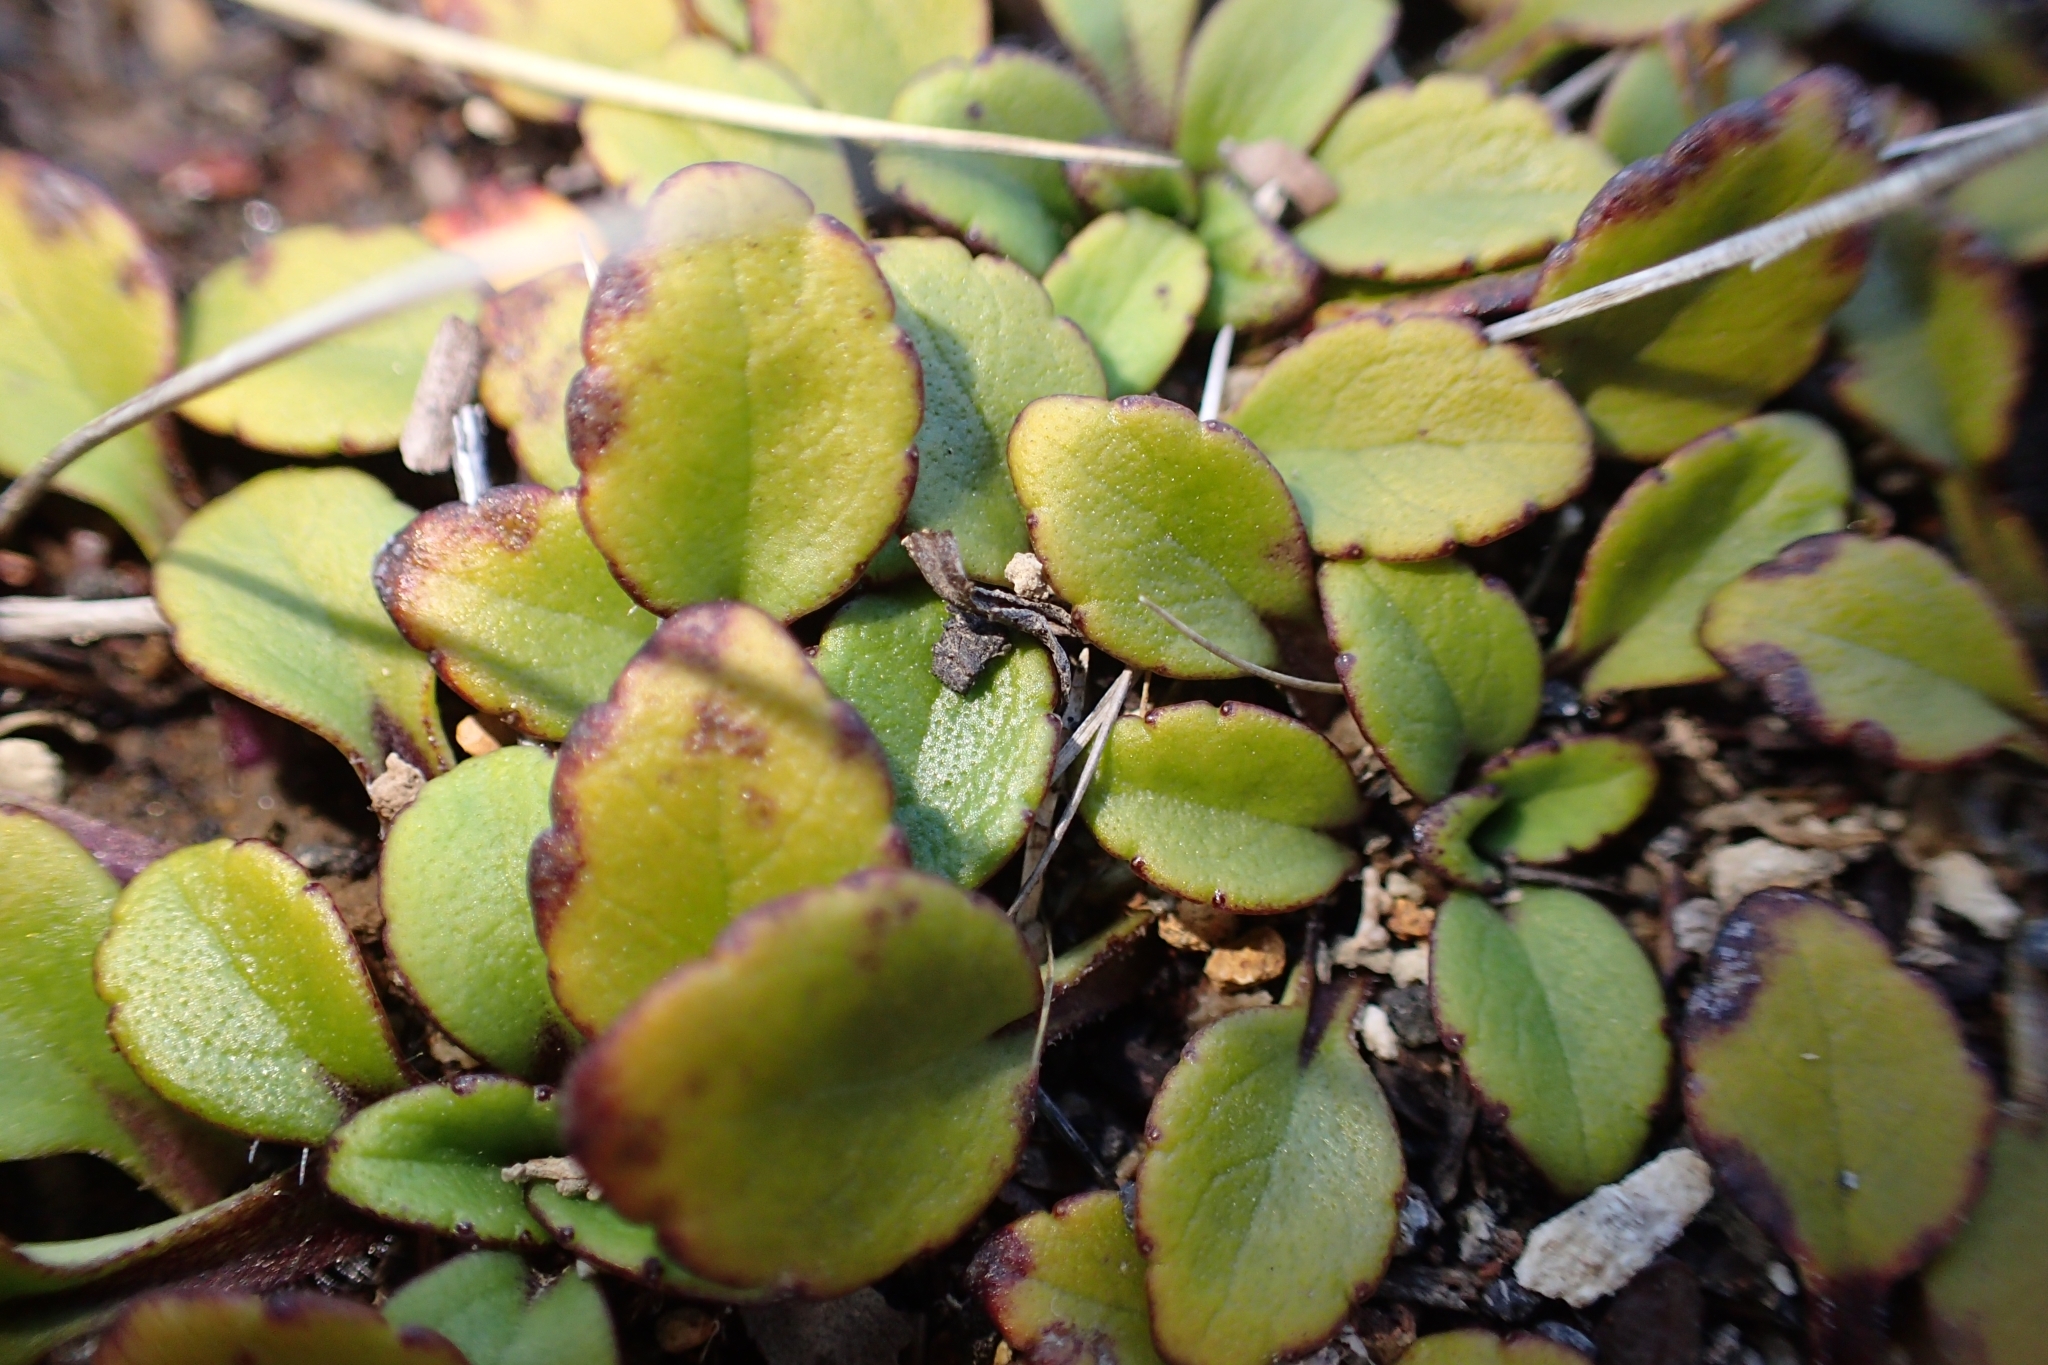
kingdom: Plantae
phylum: Tracheophyta
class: Magnoliopsida
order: Lamiales
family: Plantaginaceae
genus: Ourisia
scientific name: Ourisia vulcanica
